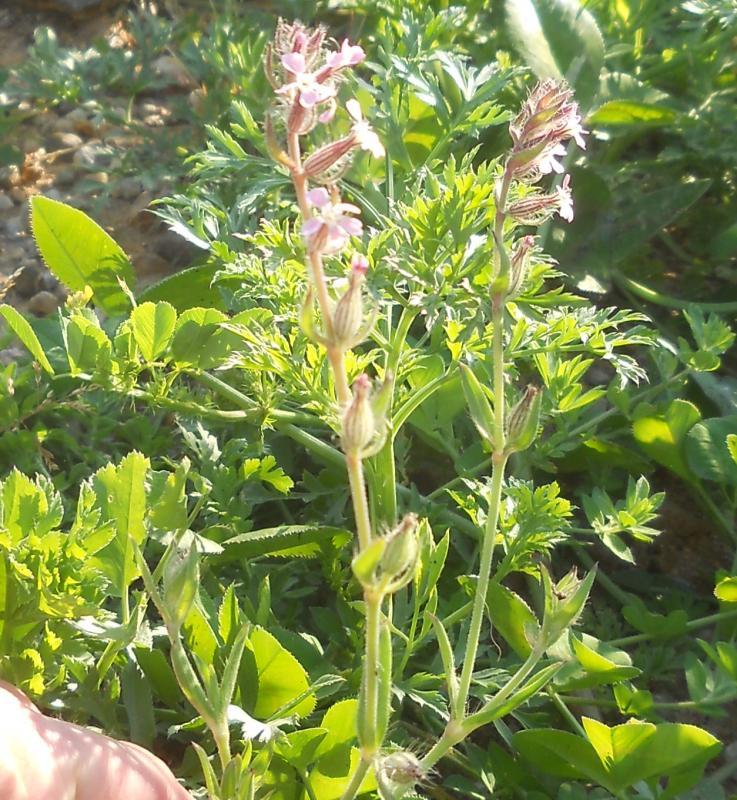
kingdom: Plantae
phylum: Tracheophyta
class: Magnoliopsida
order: Caryophyllales
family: Caryophyllaceae
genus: Silene
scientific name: Silene gallica
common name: Small-flowered catchfly
